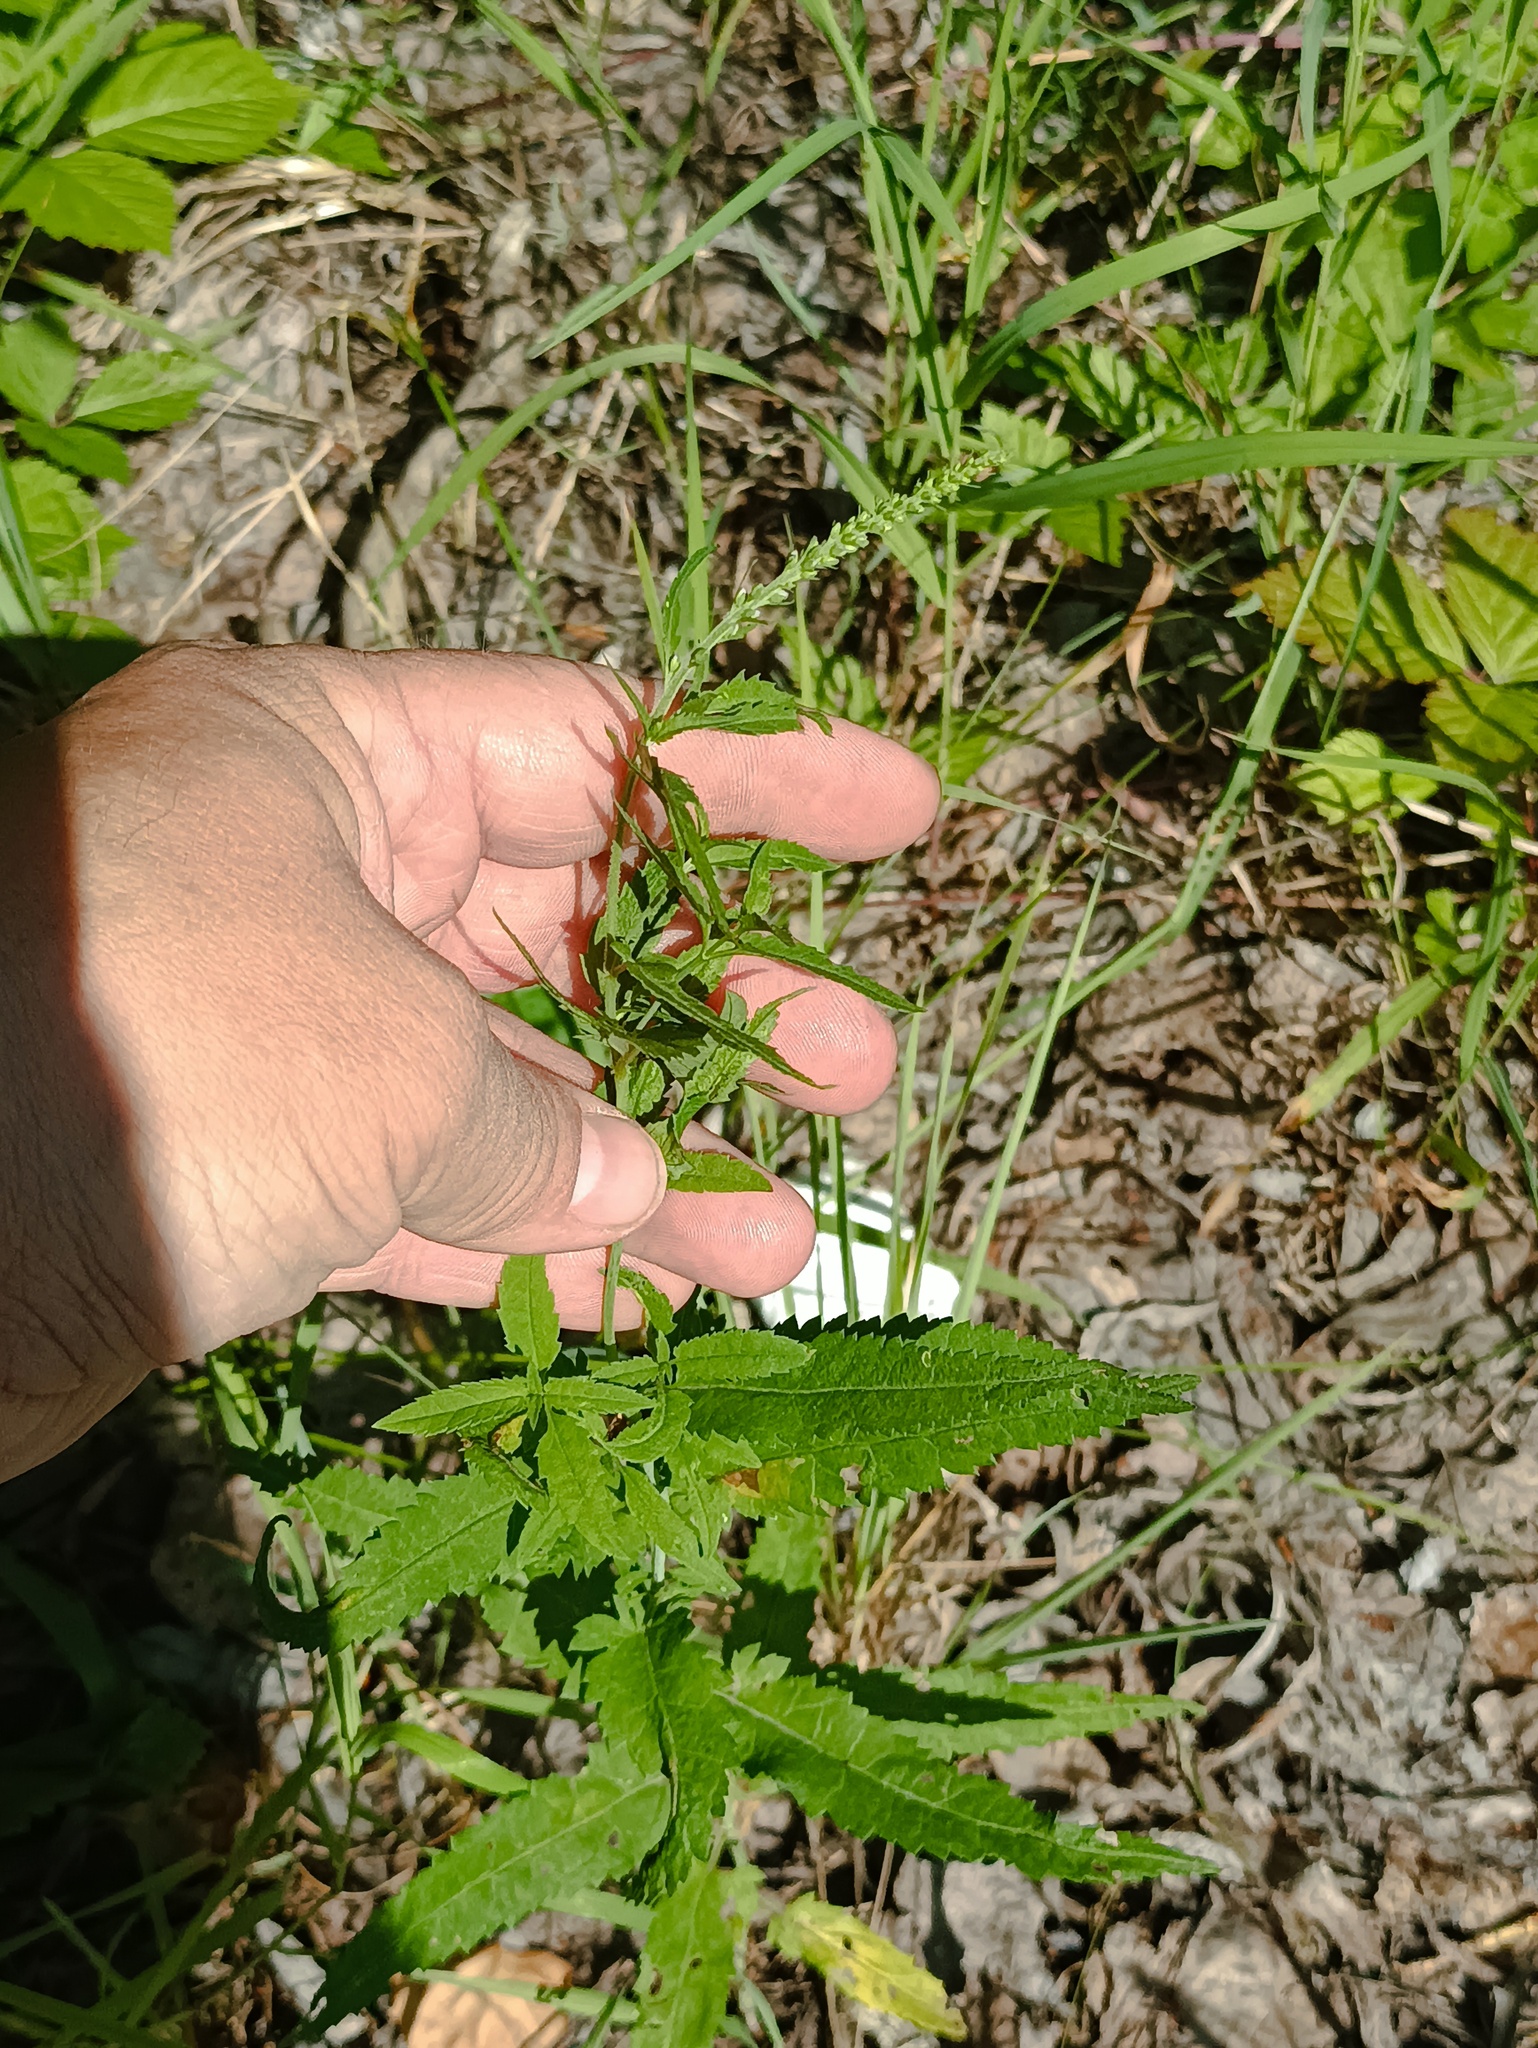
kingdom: Plantae
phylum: Tracheophyta
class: Magnoliopsida
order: Lamiales
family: Plantaginaceae
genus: Veronica
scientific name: Veronica longifolia
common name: Garden speedwell
